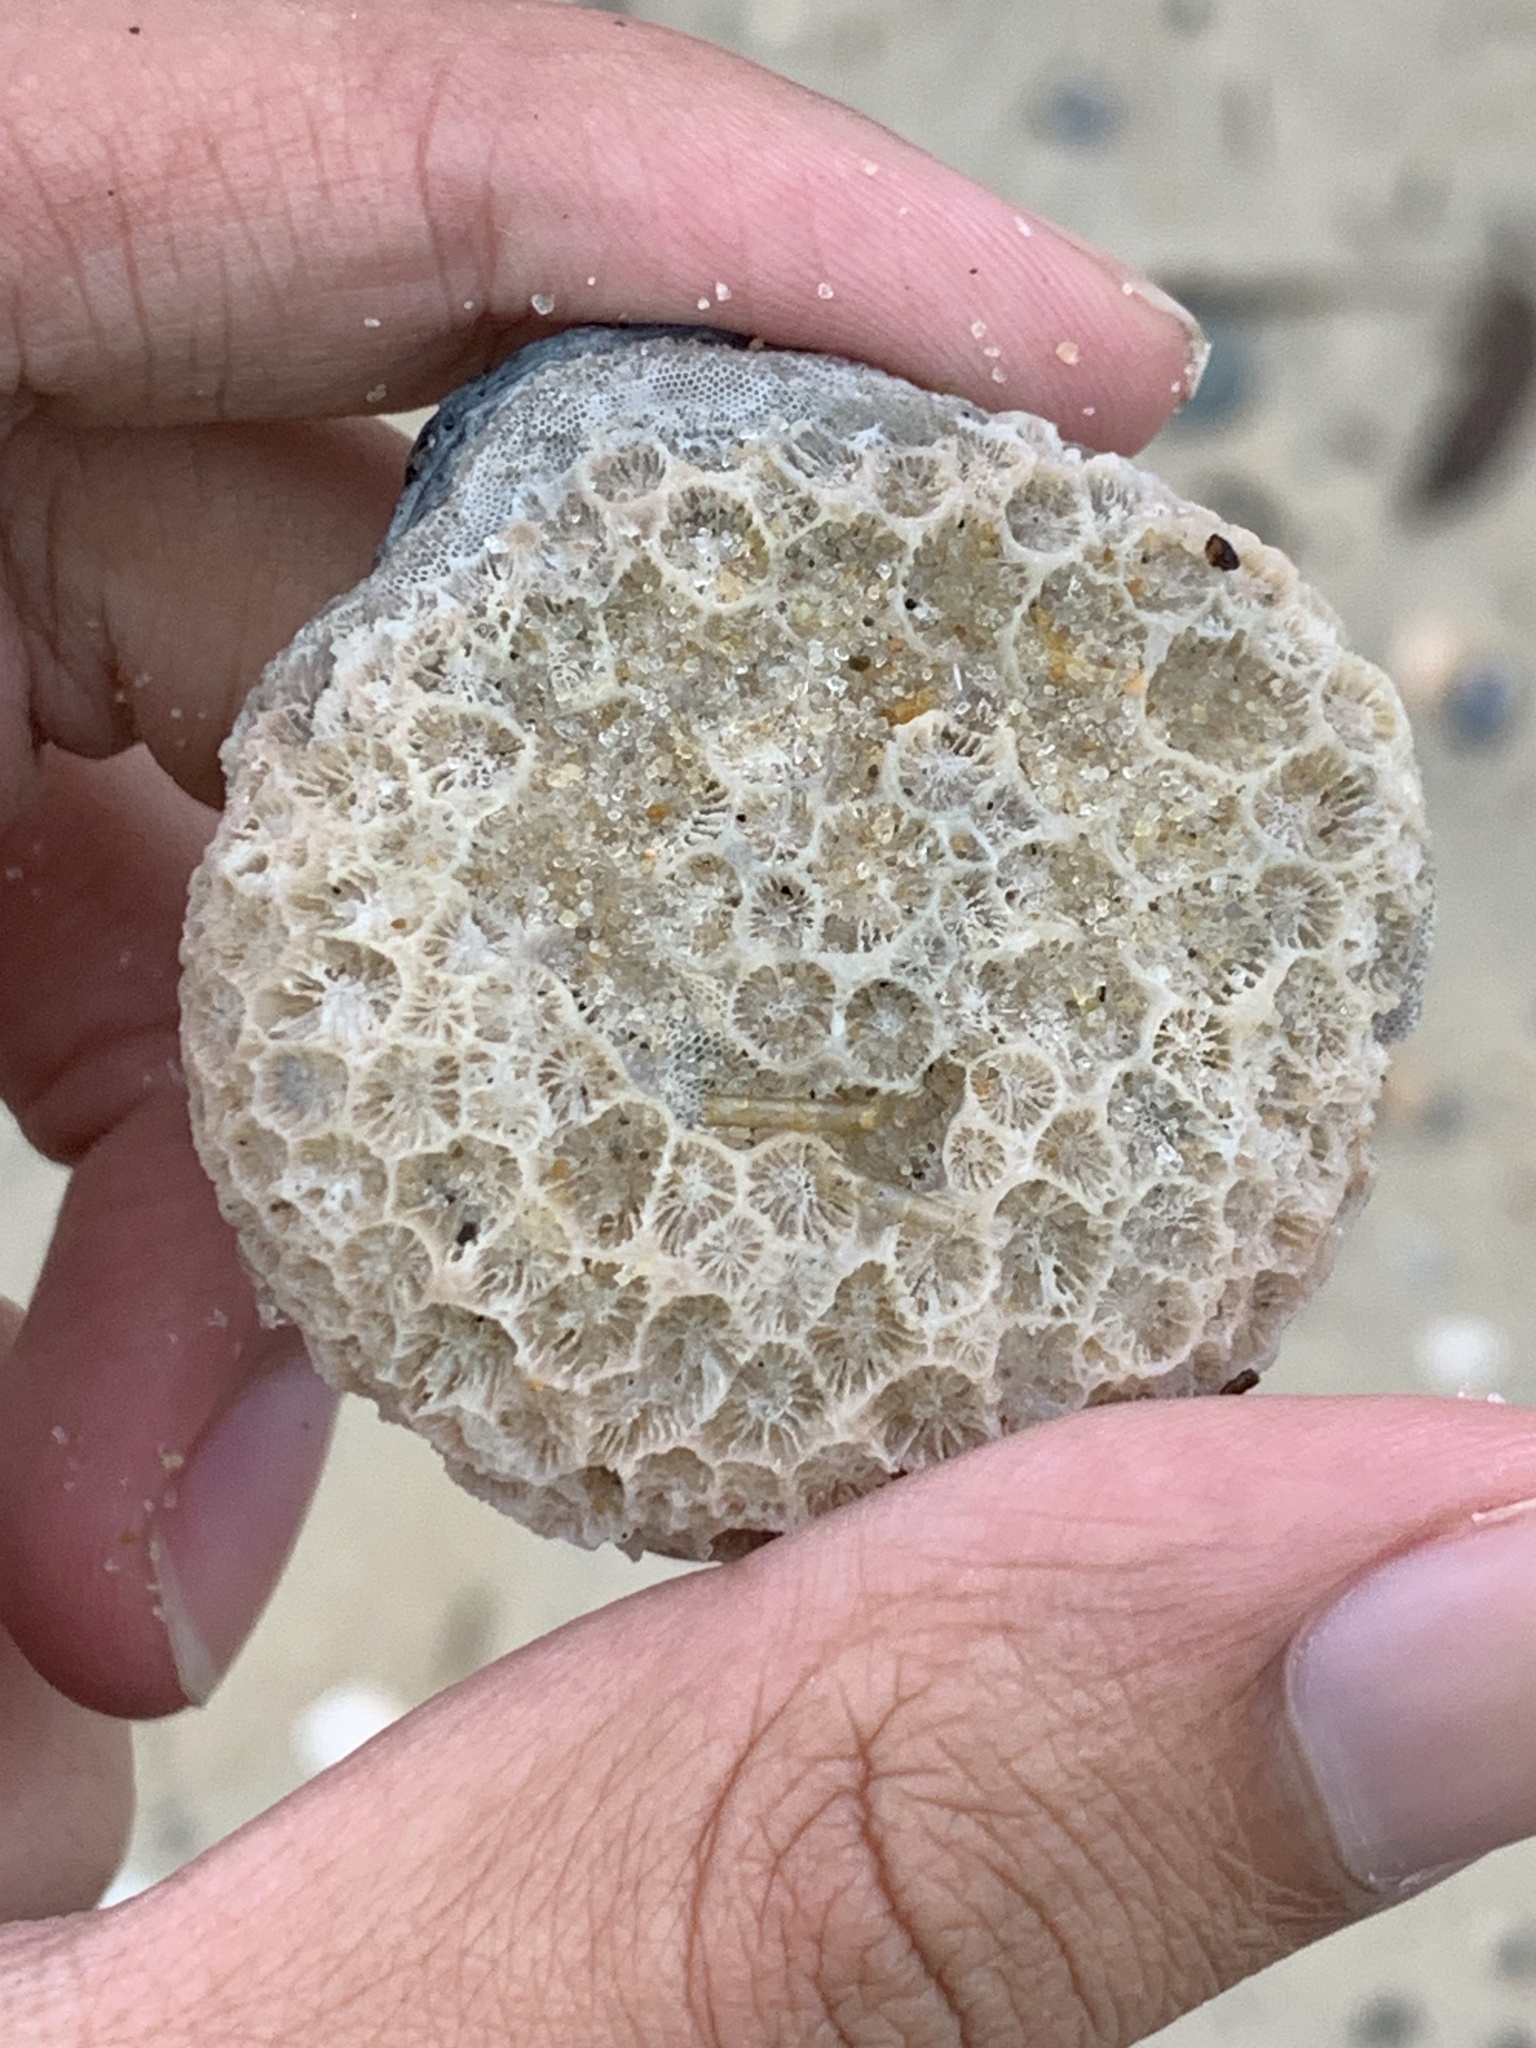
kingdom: Animalia
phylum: Cnidaria
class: Anthozoa
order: Scleractinia
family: Astrangiidae
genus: Astrangia
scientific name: Astrangia poculata
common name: Northern star coral
